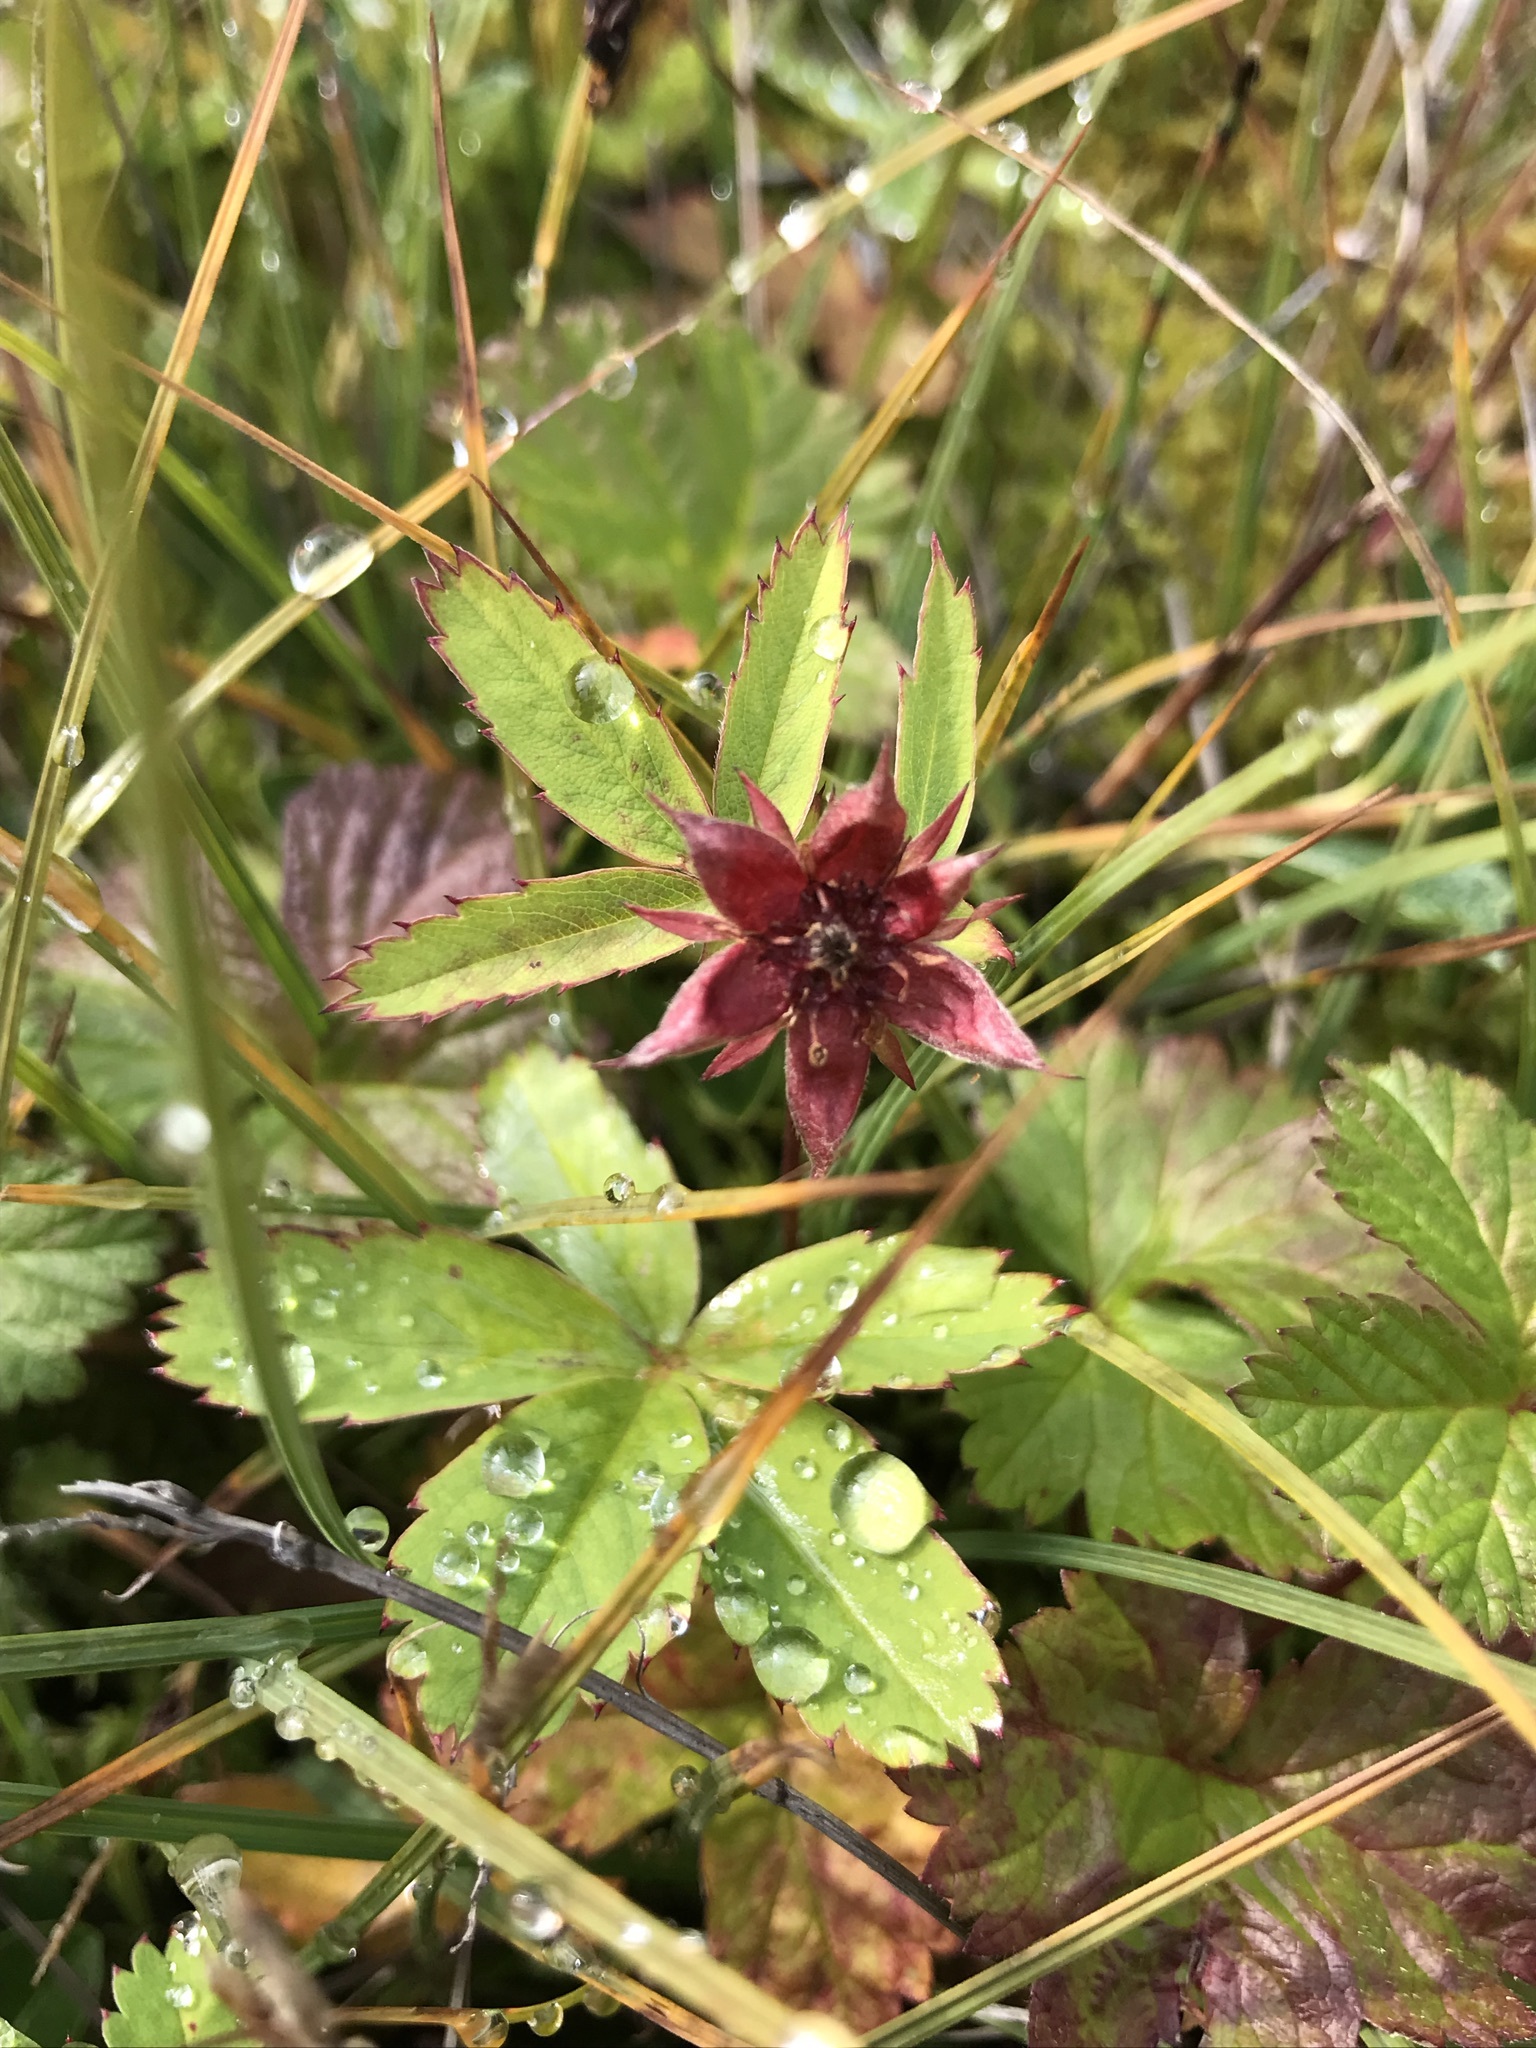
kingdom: Plantae
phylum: Tracheophyta
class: Magnoliopsida
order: Rosales
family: Rosaceae
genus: Comarum
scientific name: Comarum palustre
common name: Marsh cinquefoil
